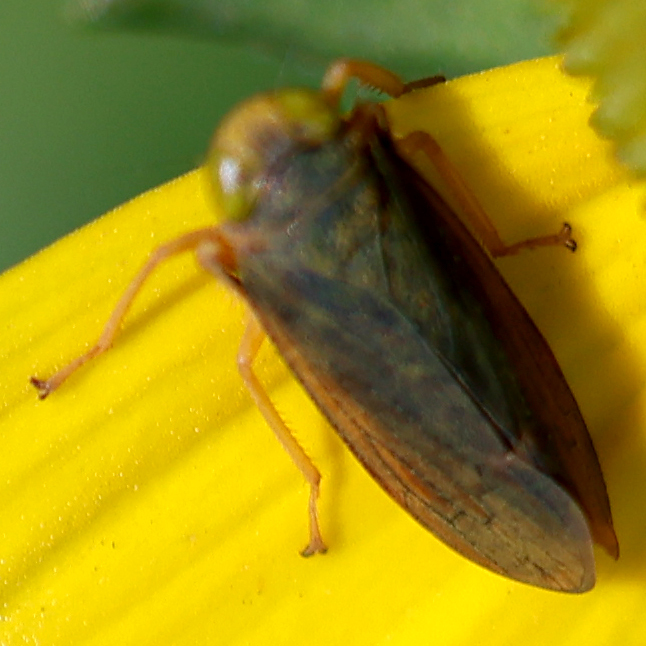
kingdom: Animalia
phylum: Arthropoda
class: Insecta
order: Hemiptera
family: Cicadellidae
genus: Jikradia
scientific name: Jikradia olitoria
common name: Coppery leafhopper
